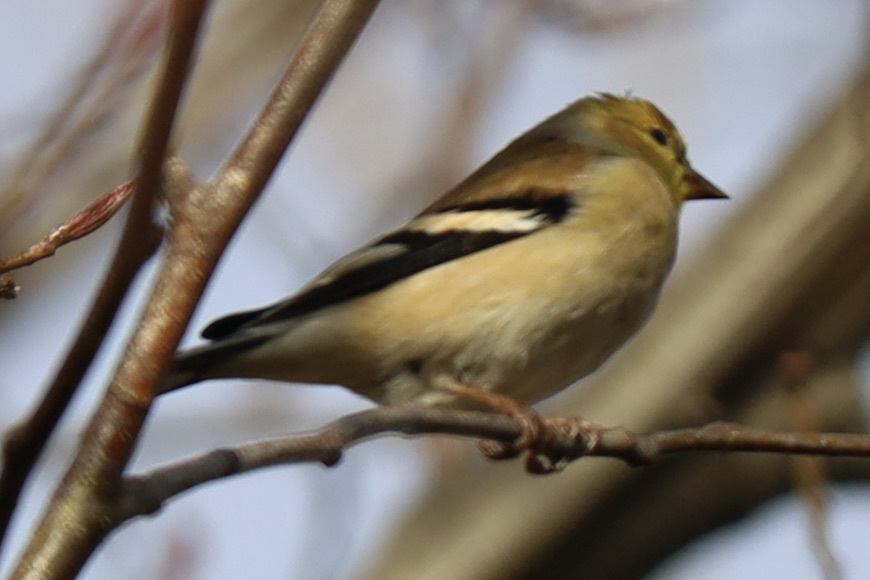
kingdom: Animalia
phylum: Chordata
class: Aves
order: Passeriformes
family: Fringillidae
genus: Spinus
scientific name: Spinus tristis
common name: American goldfinch
